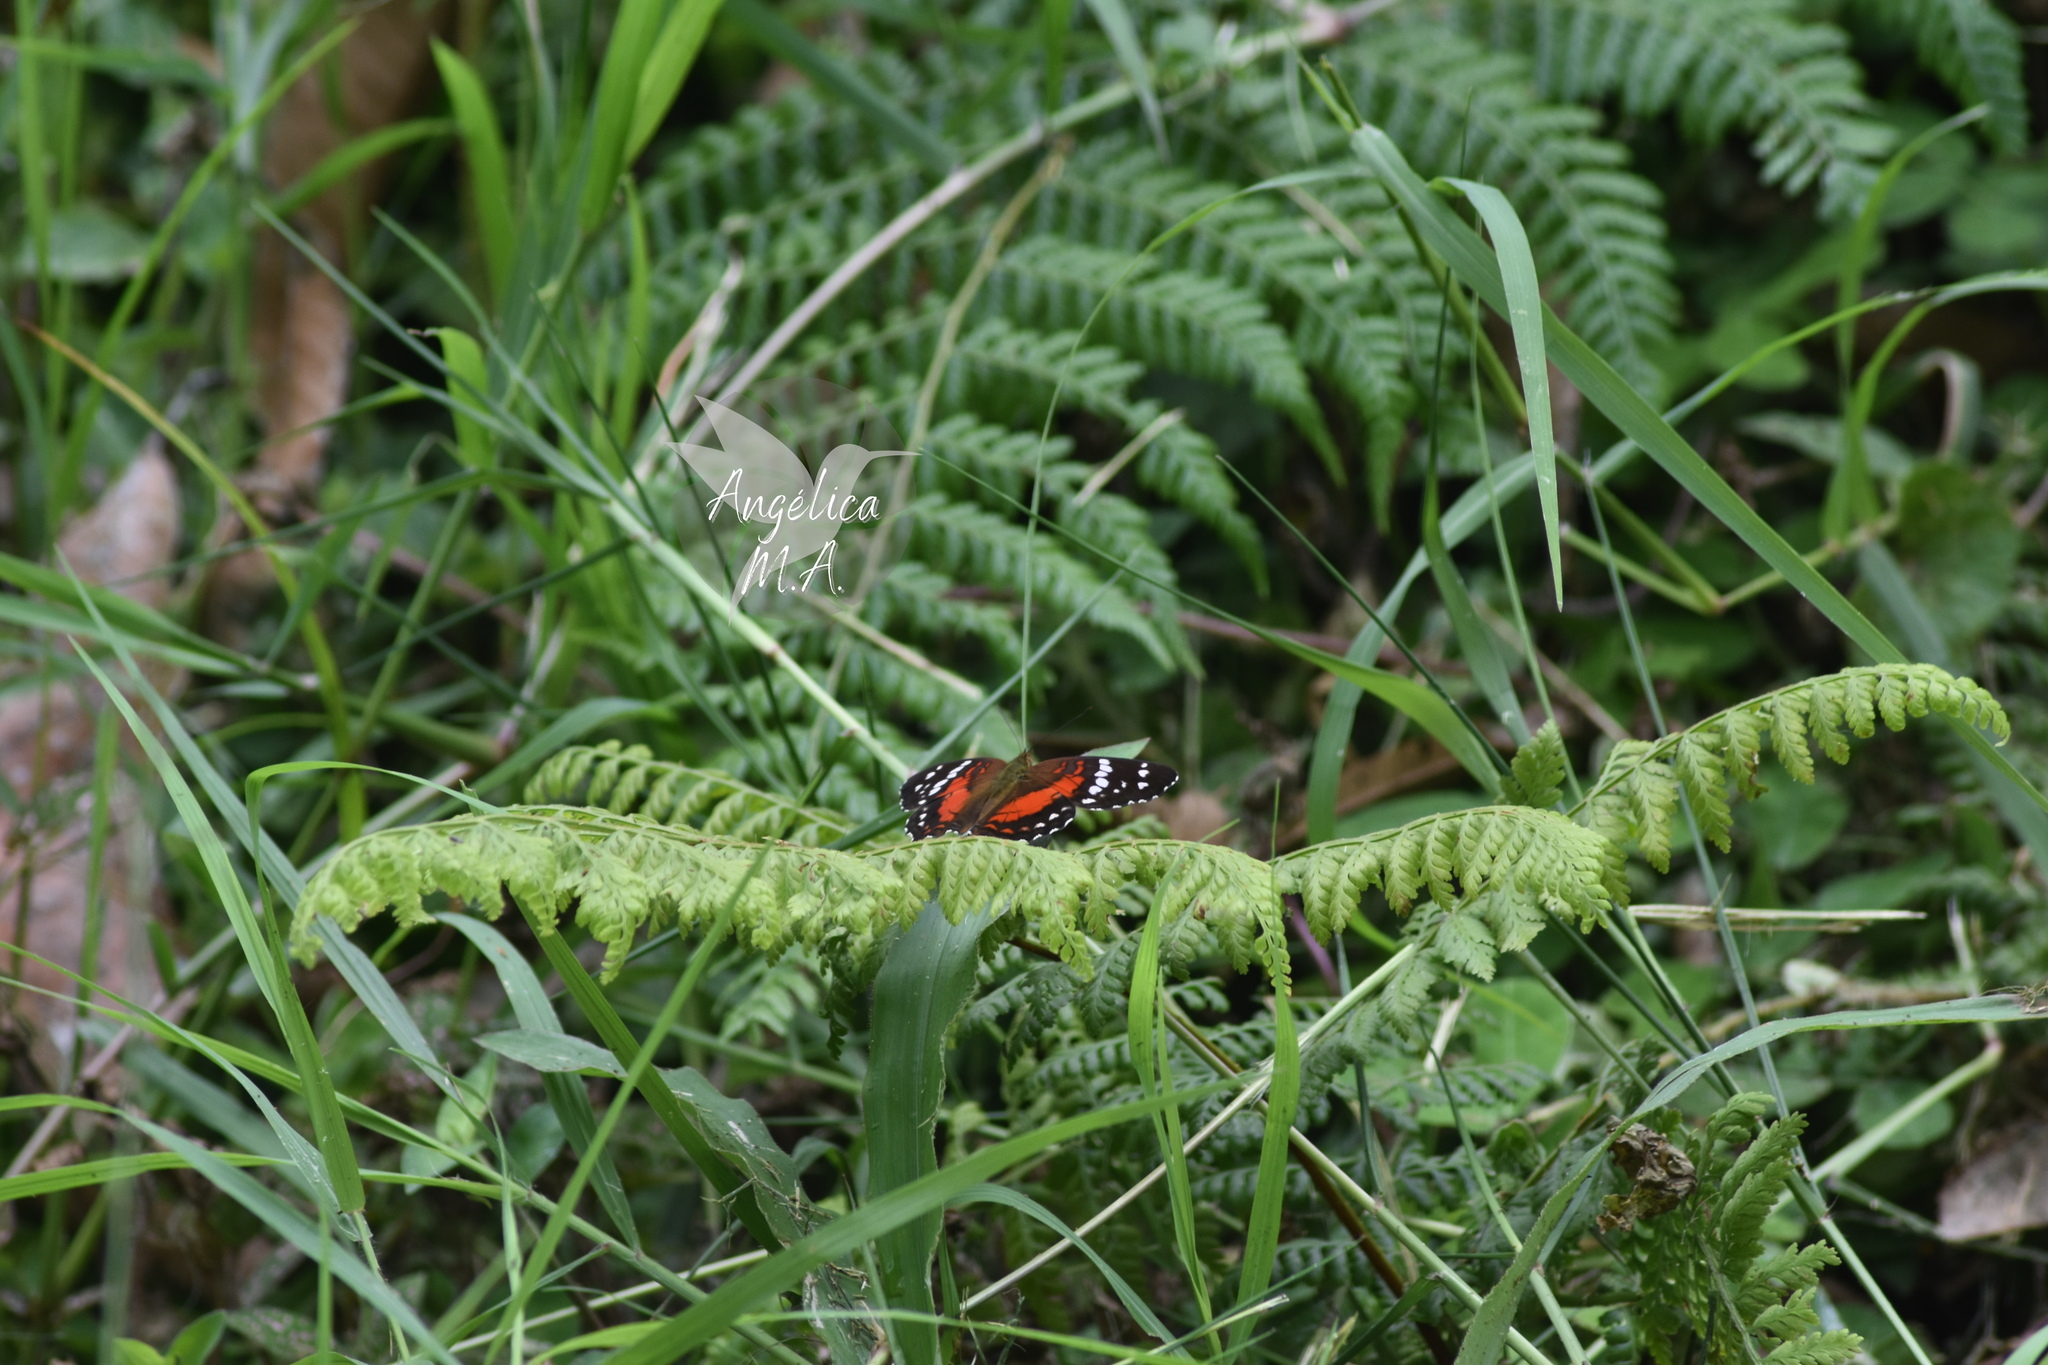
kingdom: Animalia
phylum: Arthropoda
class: Insecta
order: Lepidoptera
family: Nymphalidae
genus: Anartia
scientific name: Anartia amathea
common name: Red peacock
